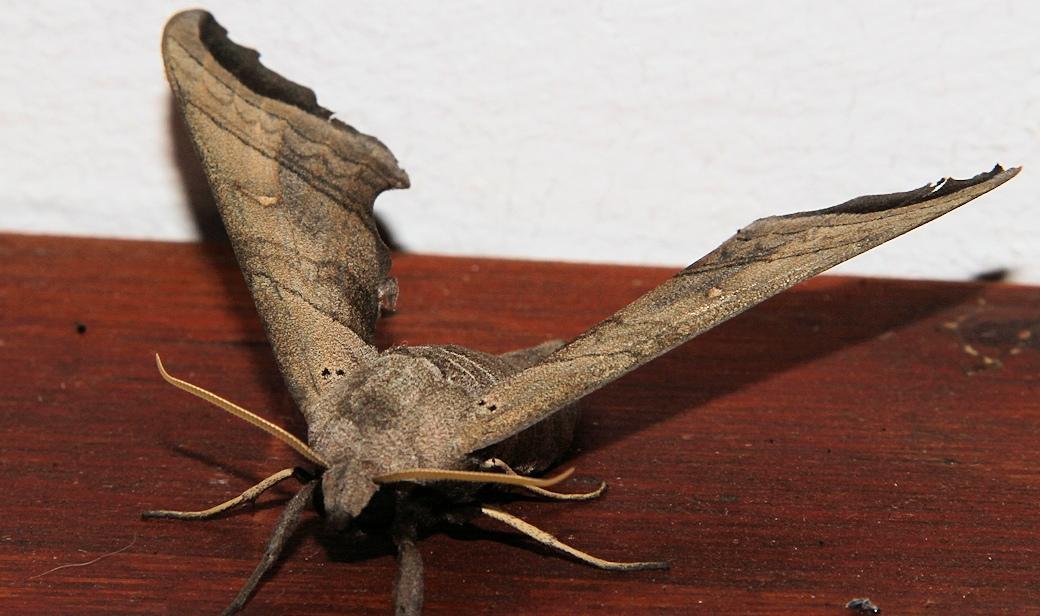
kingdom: Animalia
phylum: Arthropoda
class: Insecta
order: Lepidoptera
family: Sphingidae
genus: Polyptychoides
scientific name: Polyptychoides grayii
